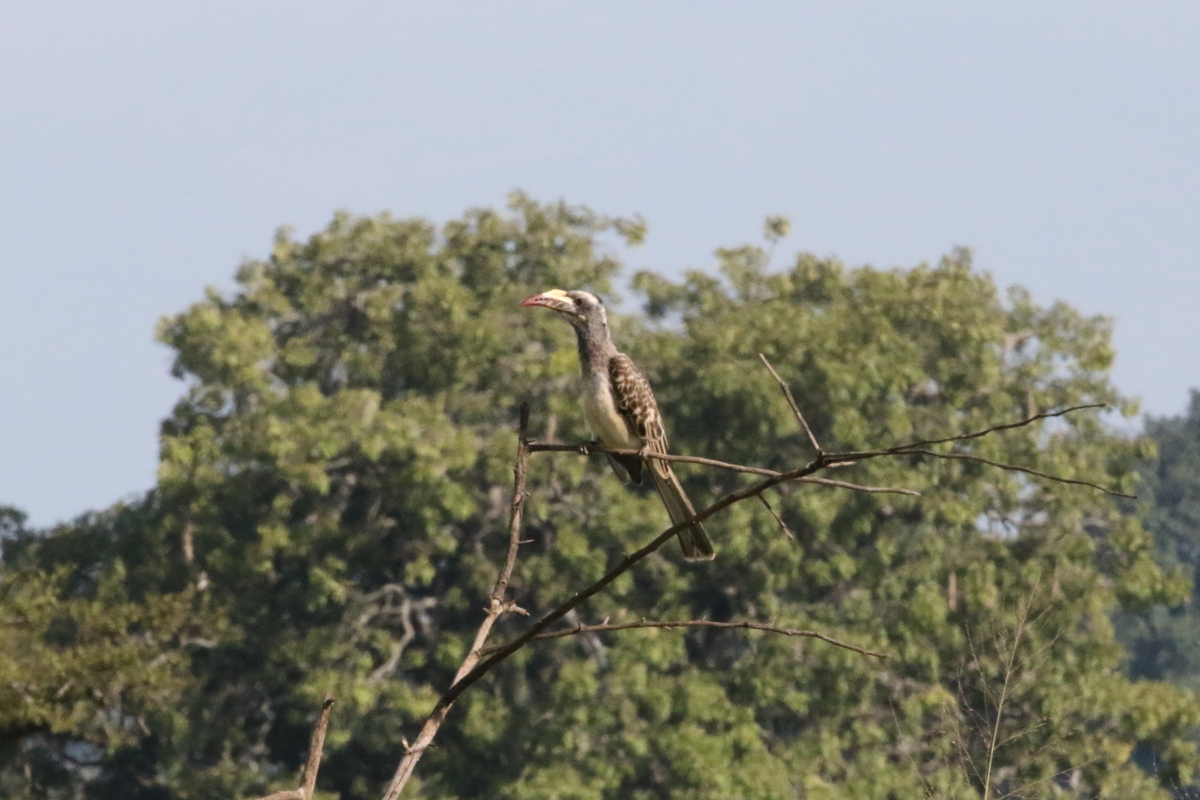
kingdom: Animalia
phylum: Chordata
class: Aves
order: Bucerotiformes
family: Bucerotidae
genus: Lophoceros
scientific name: Lophoceros nasutus
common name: African grey hornbill
